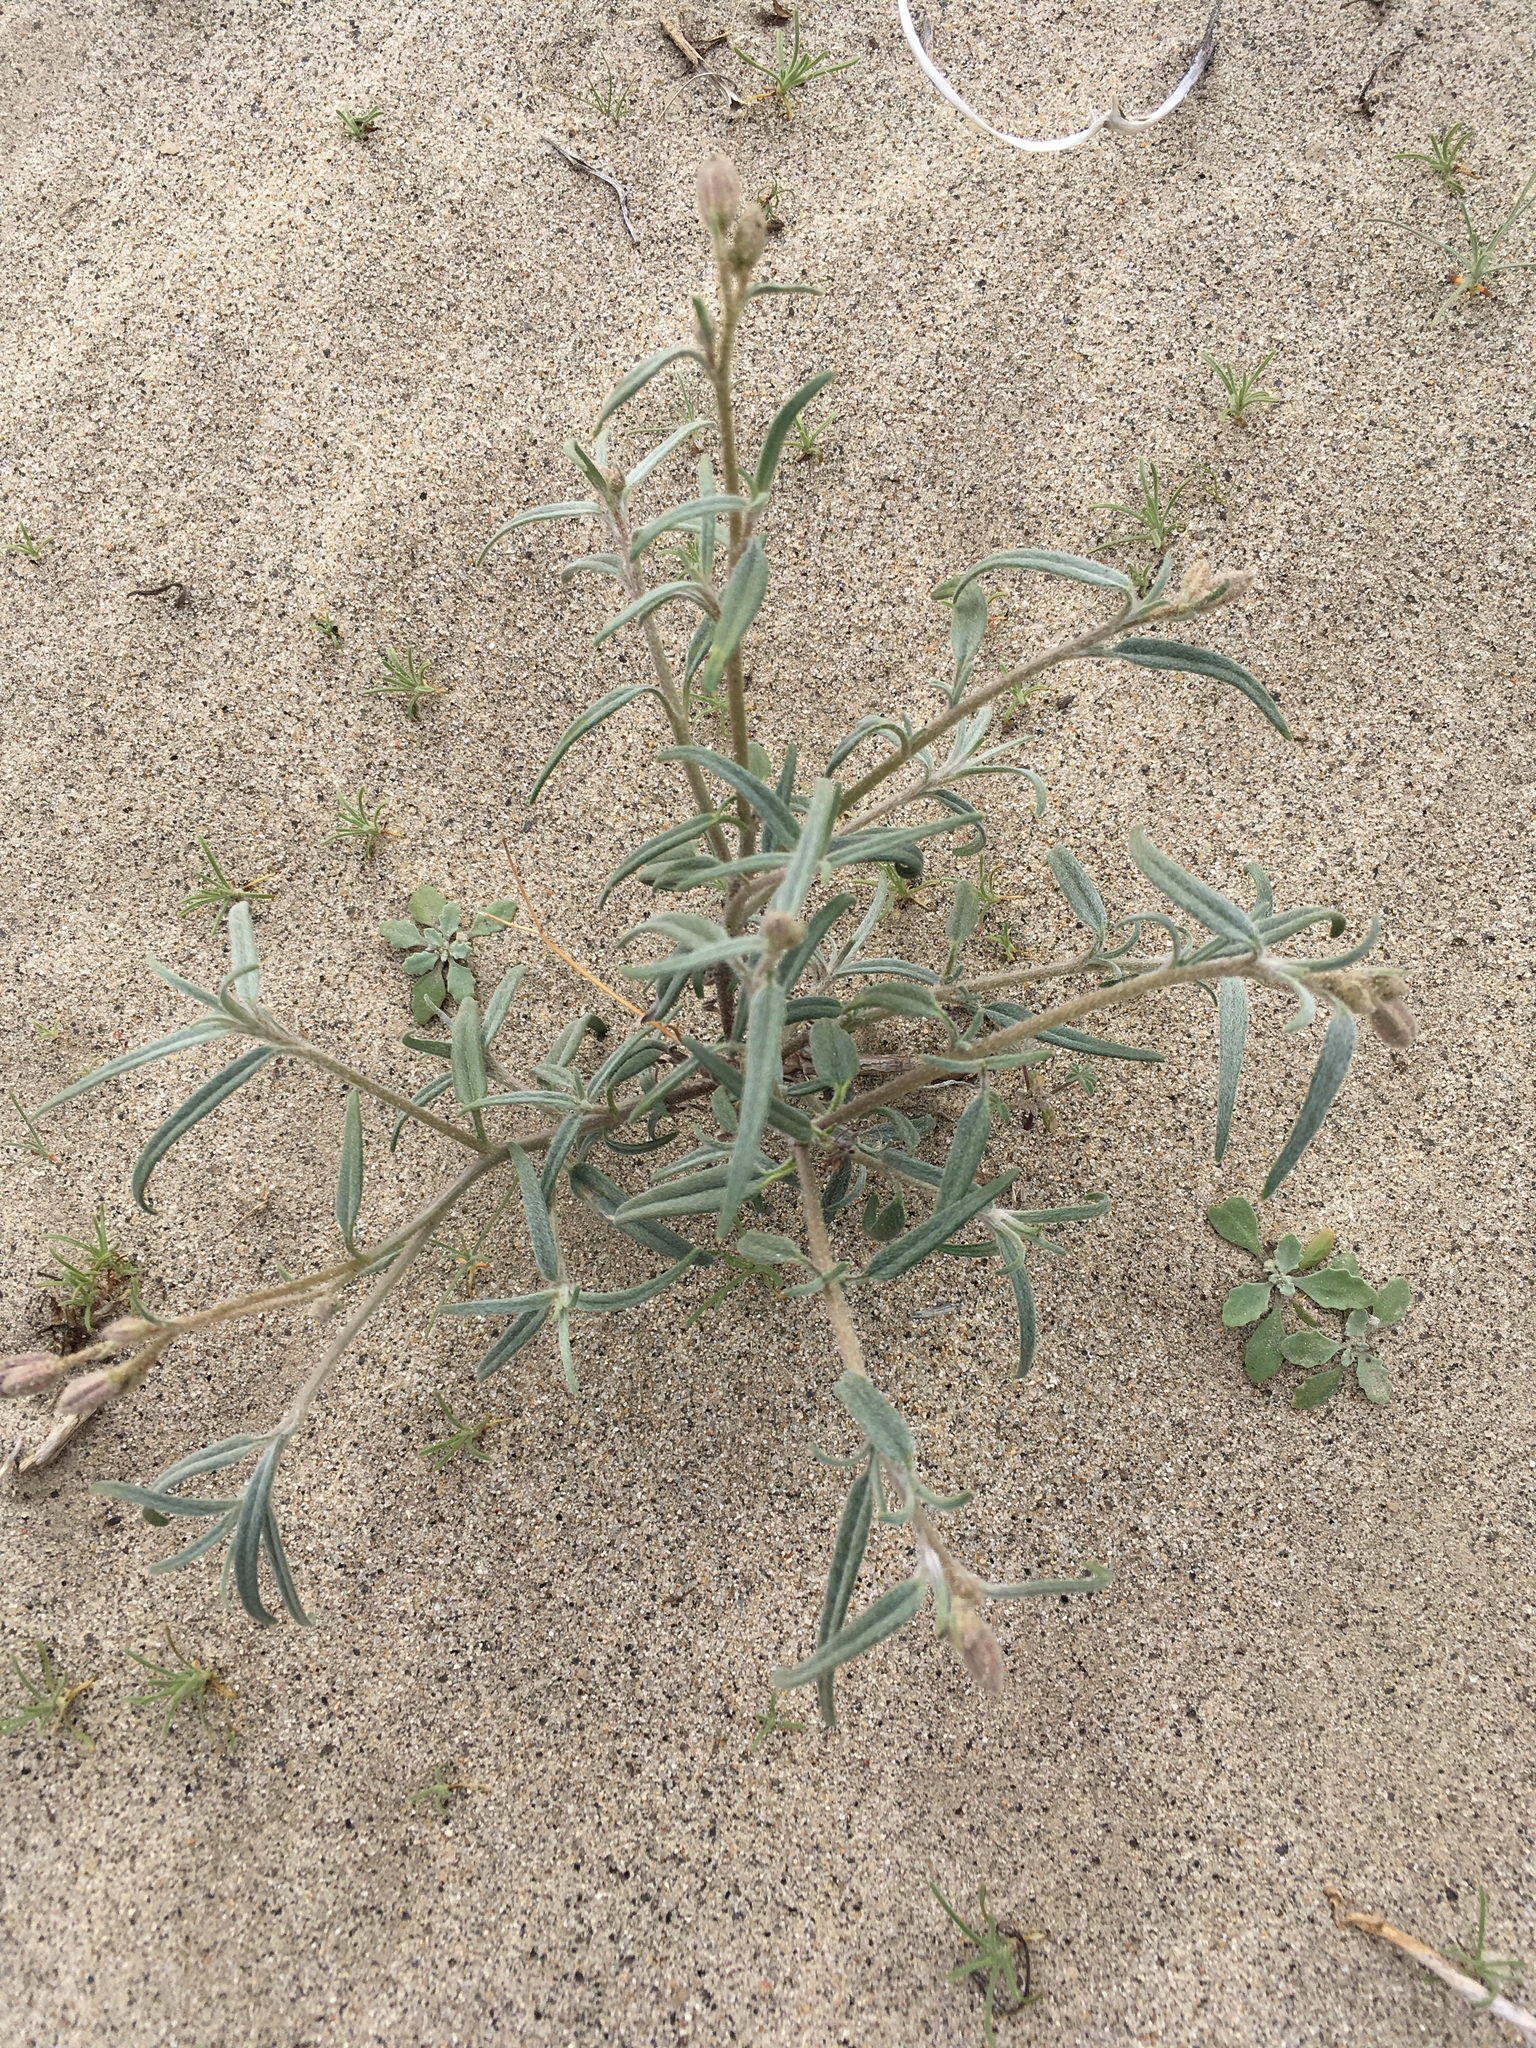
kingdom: Plantae
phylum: Tracheophyta
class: Magnoliopsida
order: Asterales
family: Asteraceae
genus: Palafoxia
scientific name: Palafoxia arida
